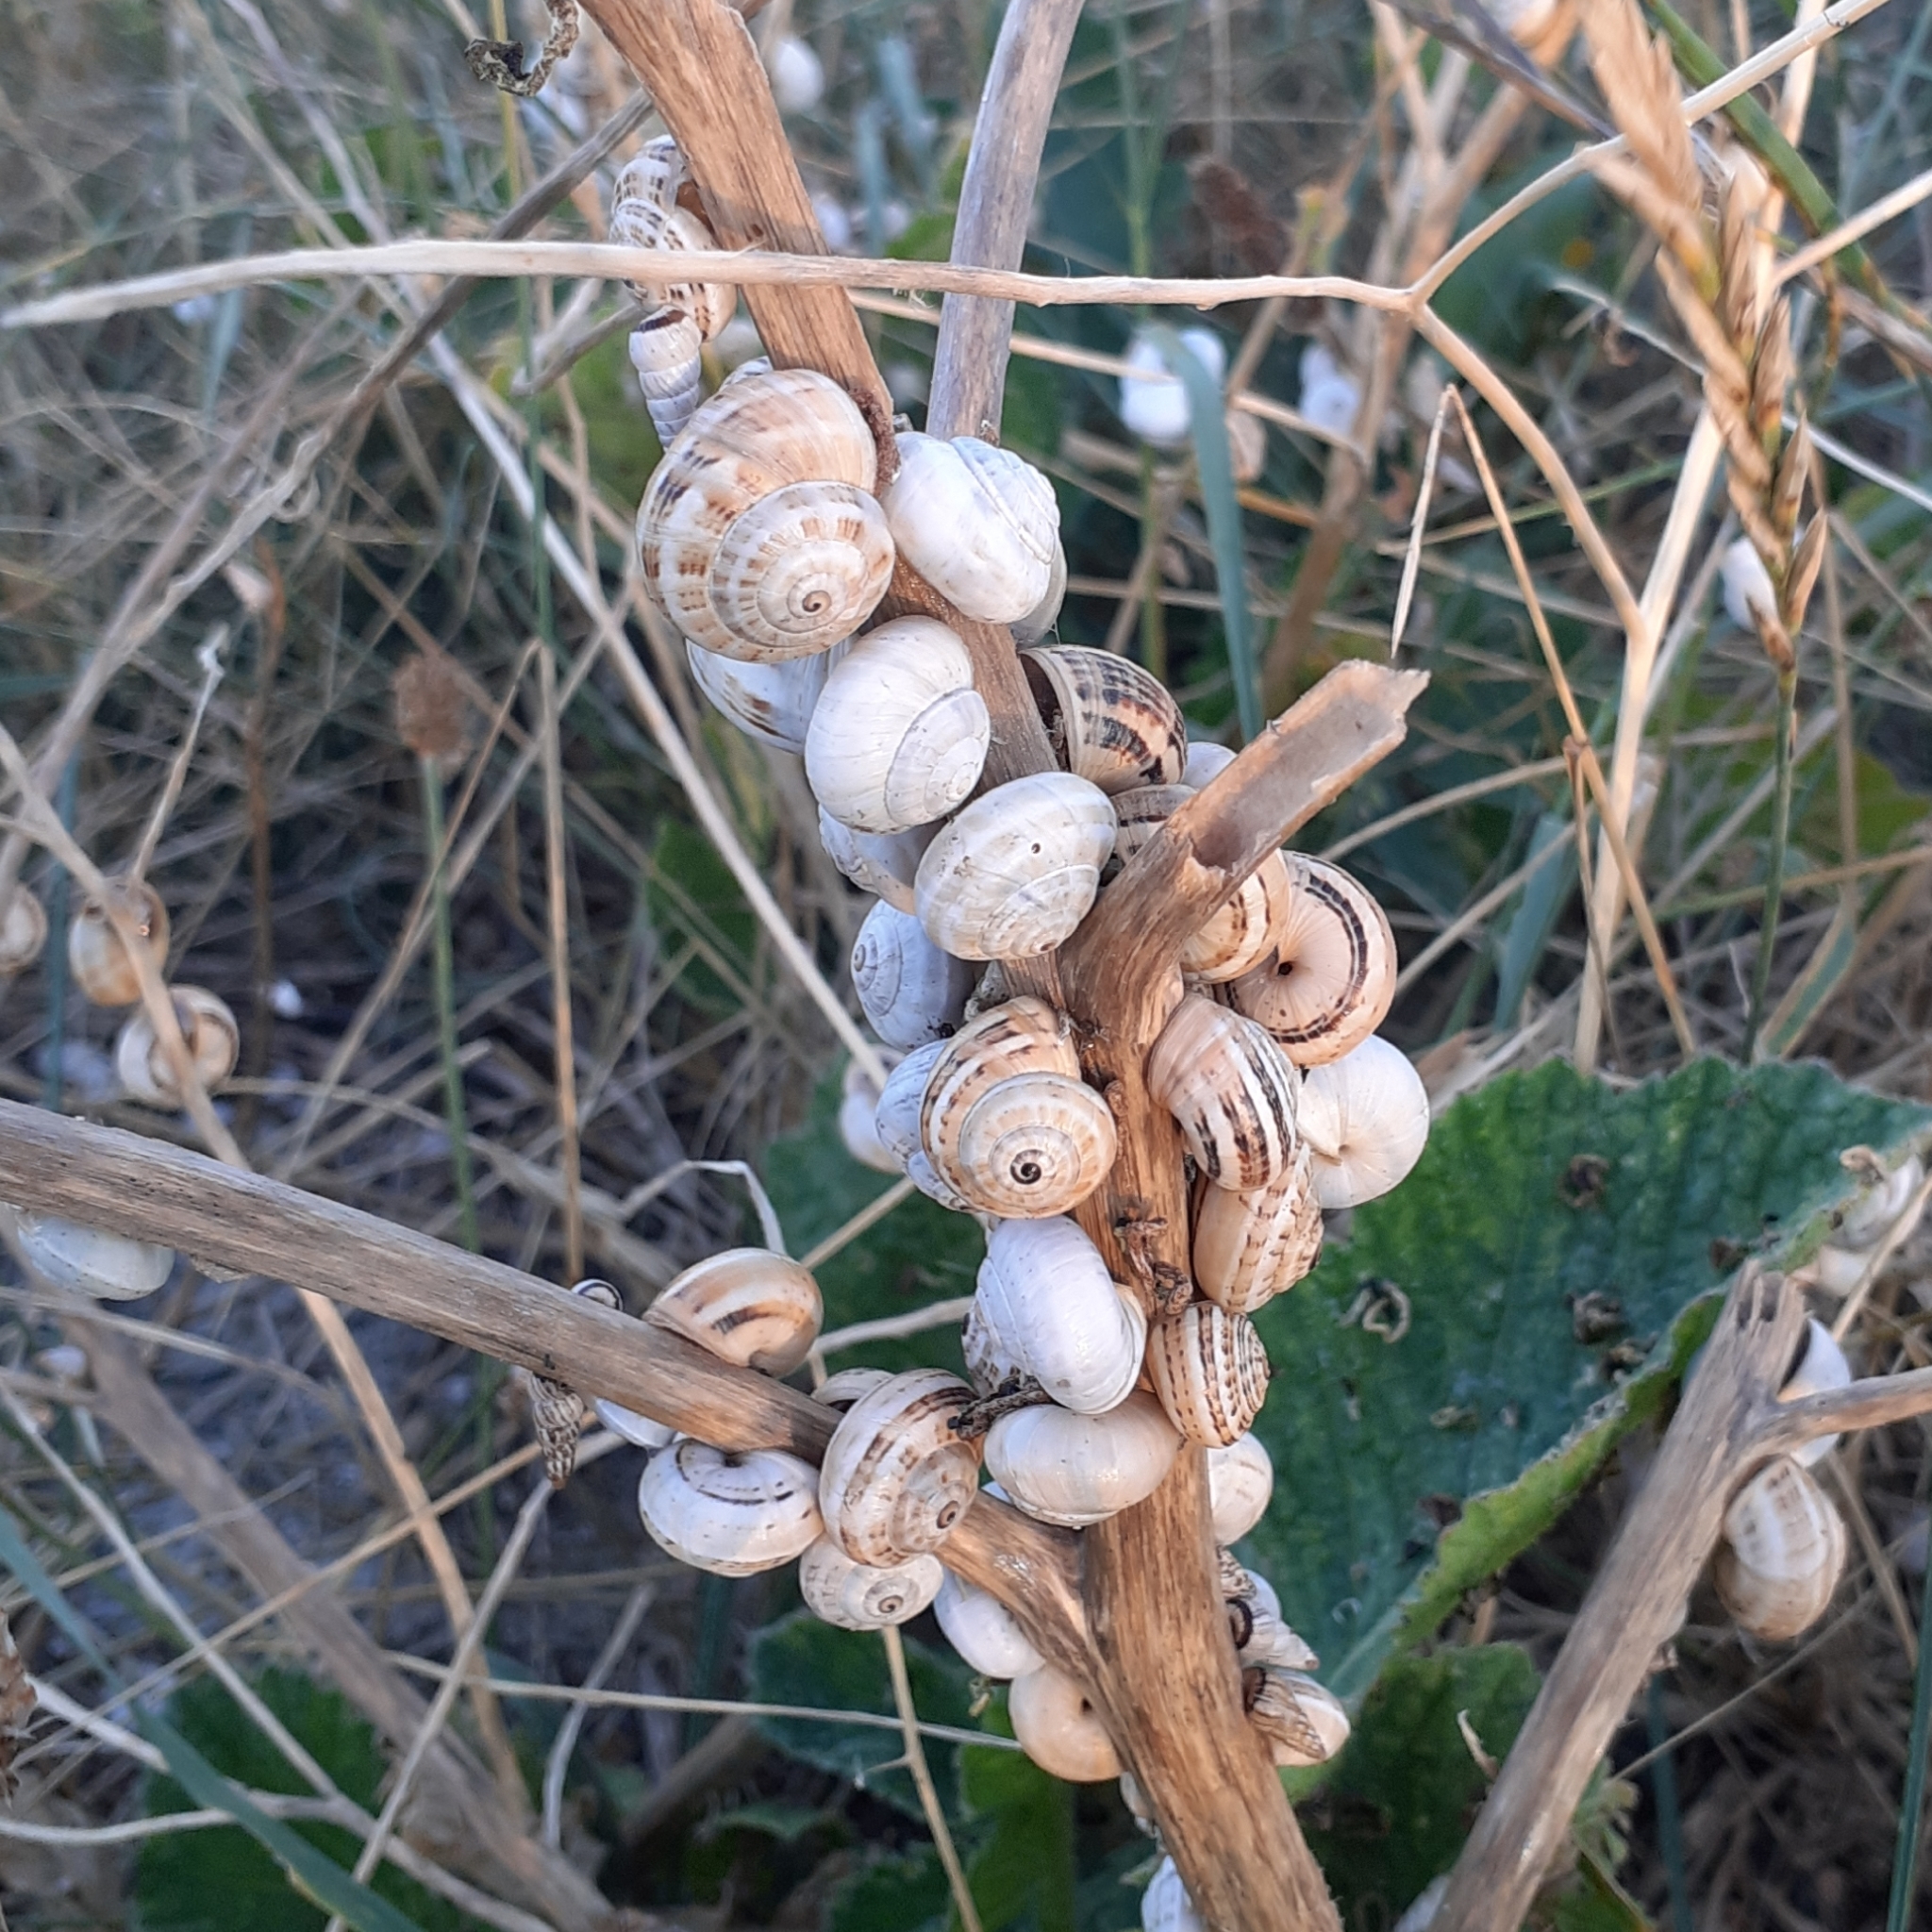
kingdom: Animalia
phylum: Mollusca
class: Gastropoda
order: Stylommatophora
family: Helicidae
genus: Theba
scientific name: Theba pisana
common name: White snail
